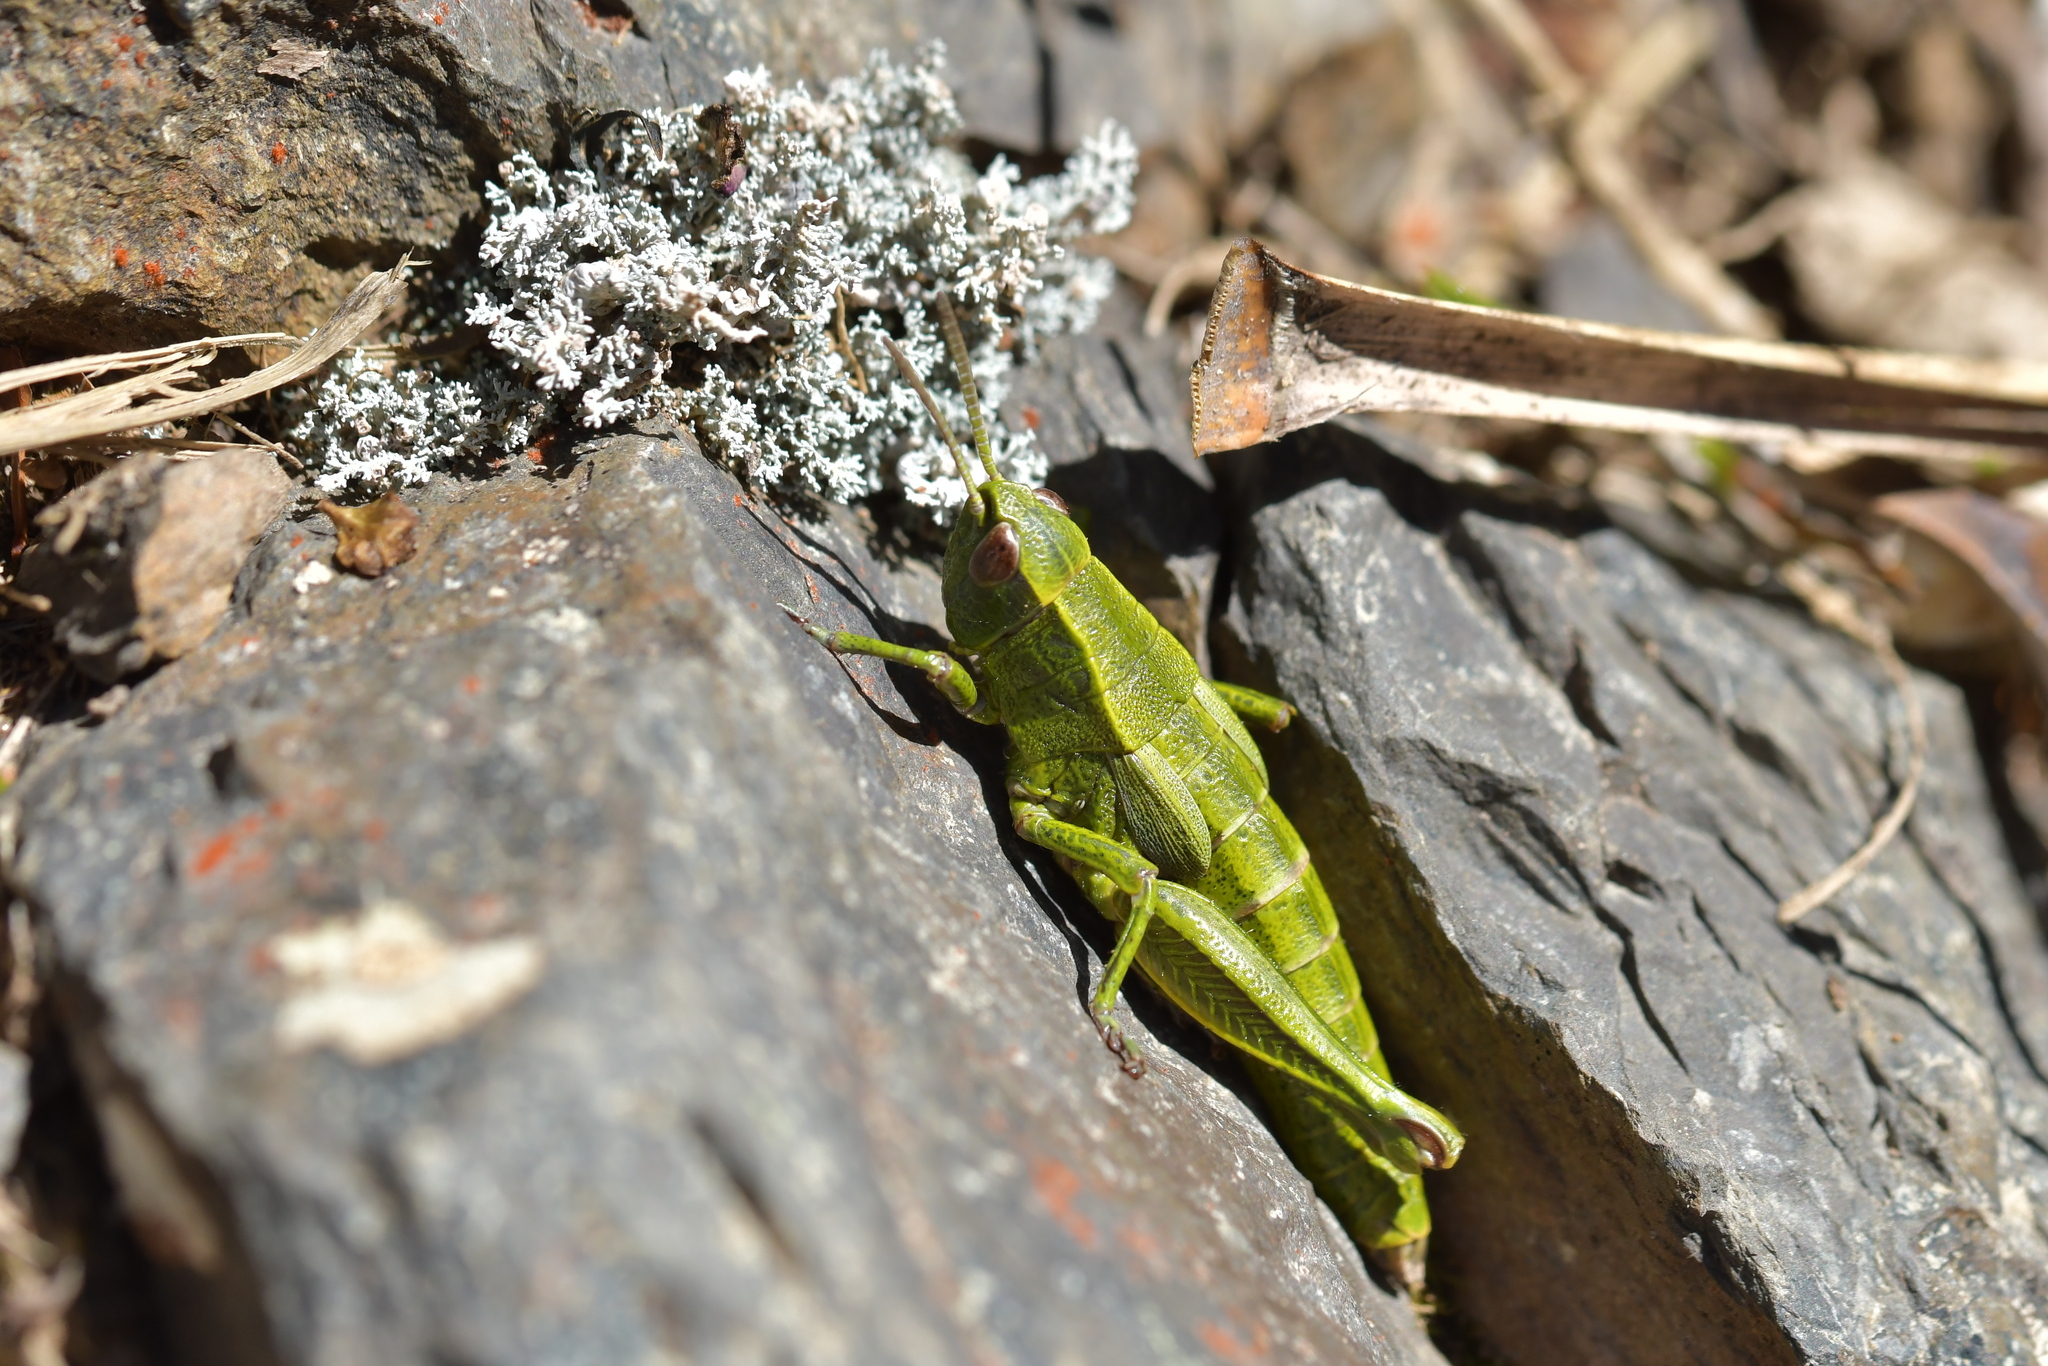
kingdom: Animalia
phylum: Arthropoda
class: Insecta
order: Orthoptera
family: Acrididae
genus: Sigaus
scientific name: Sigaus piliferus
